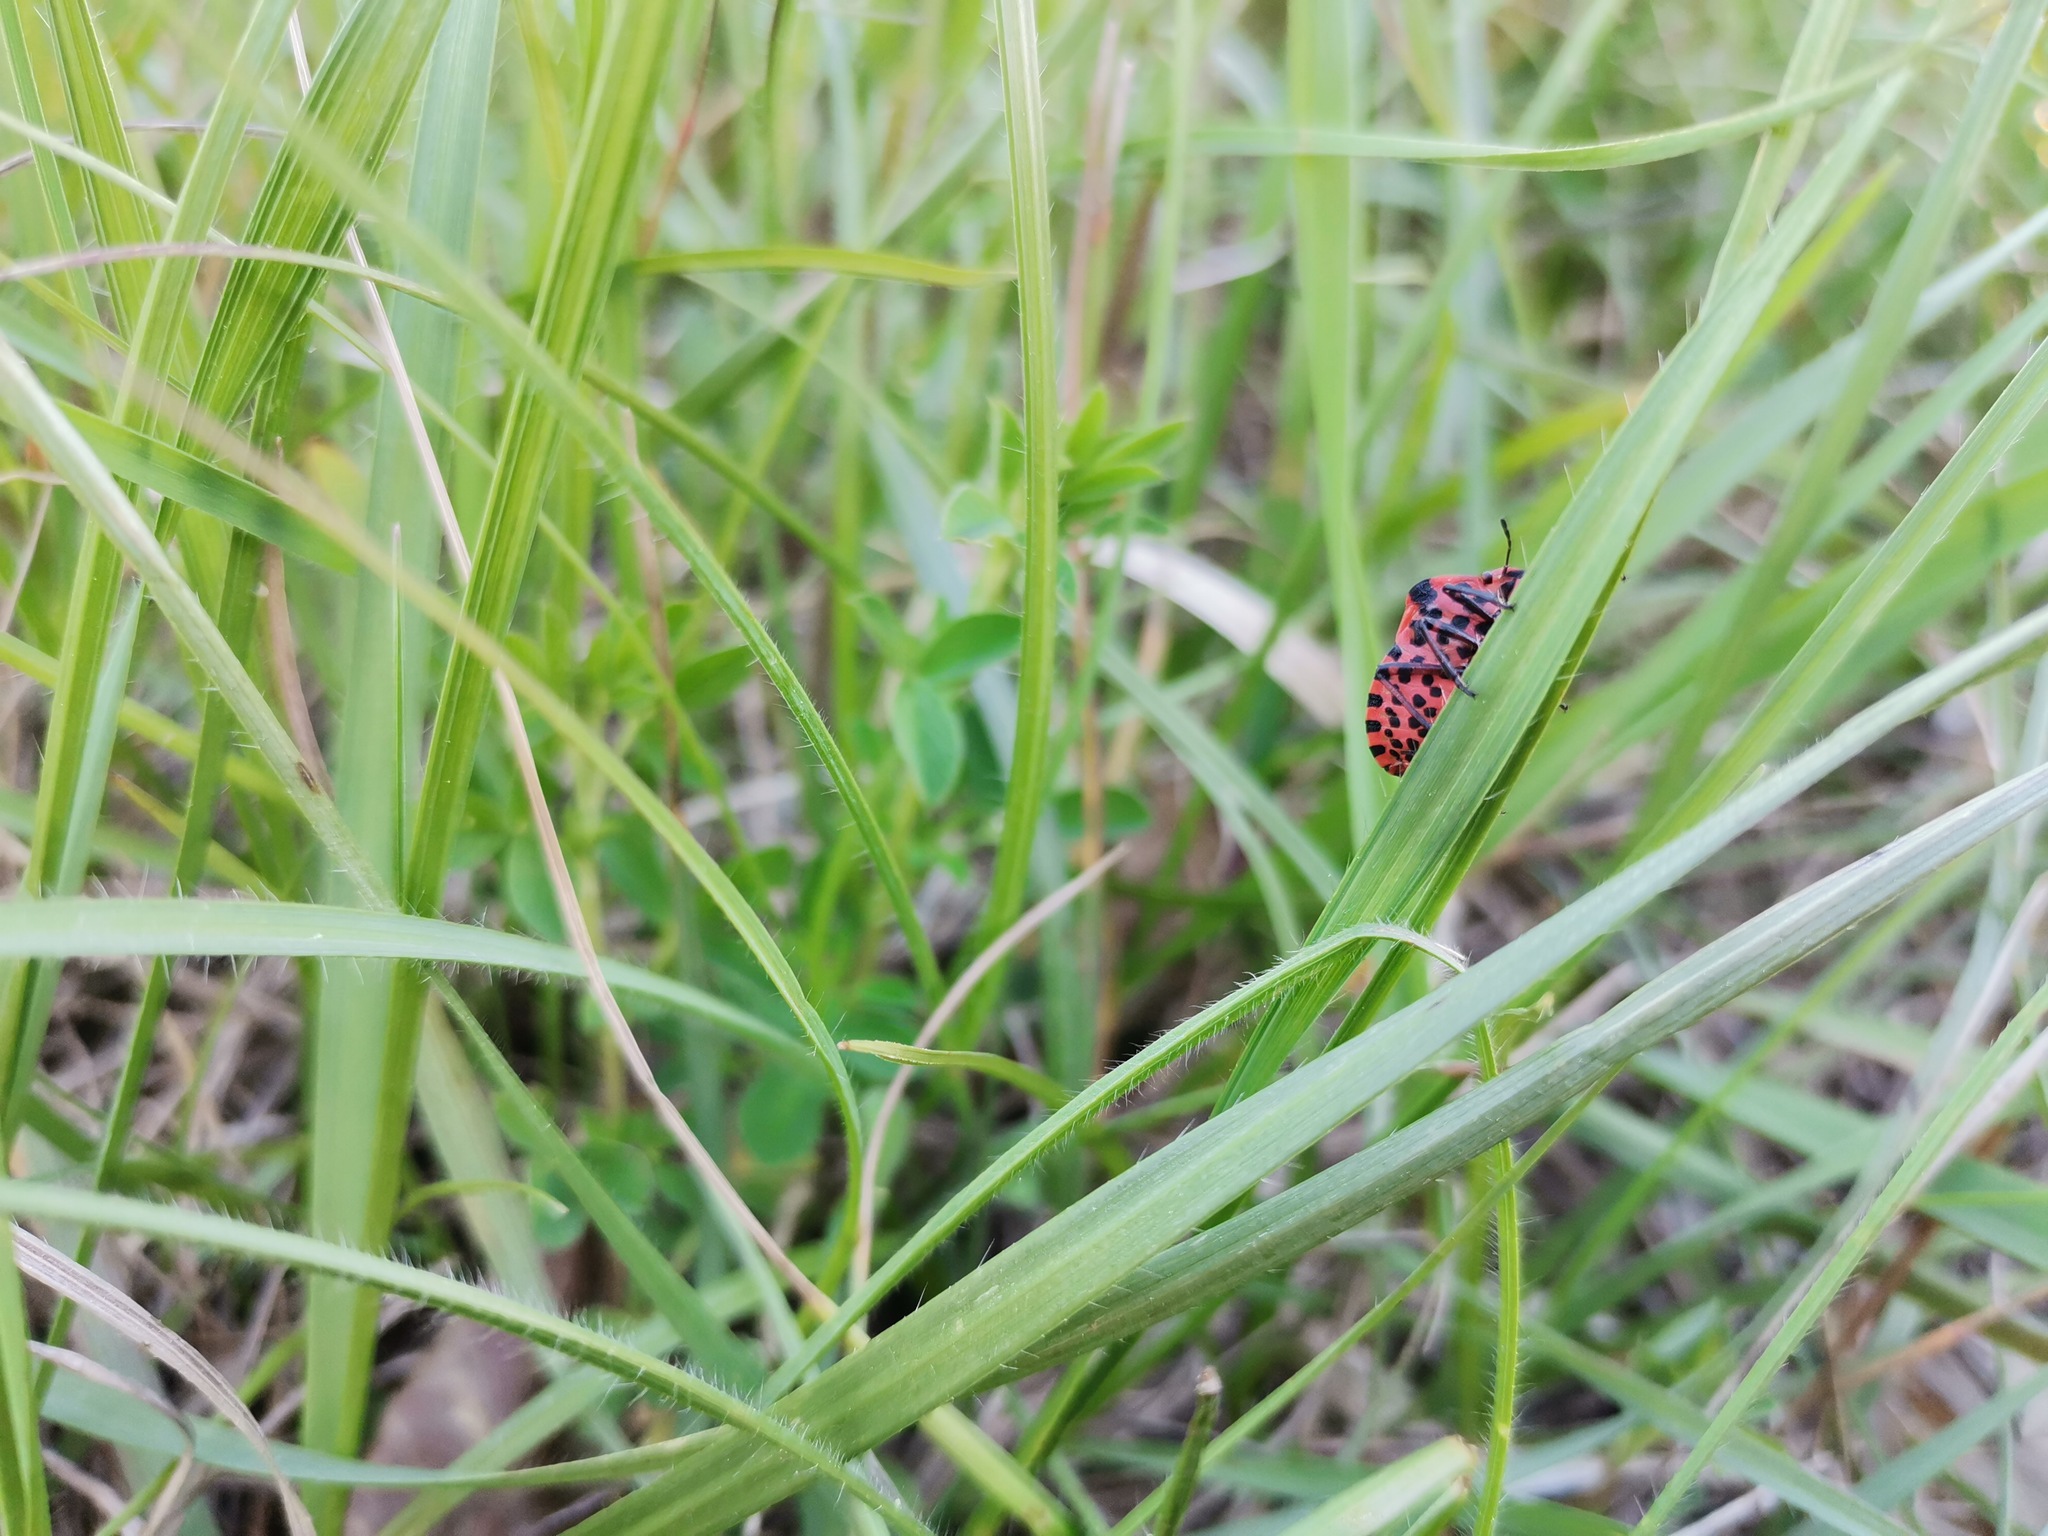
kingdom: Animalia
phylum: Arthropoda
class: Insecta
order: Hemiptera
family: Pentatomidae
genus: Graphosoma
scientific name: Graphosoma italicum
